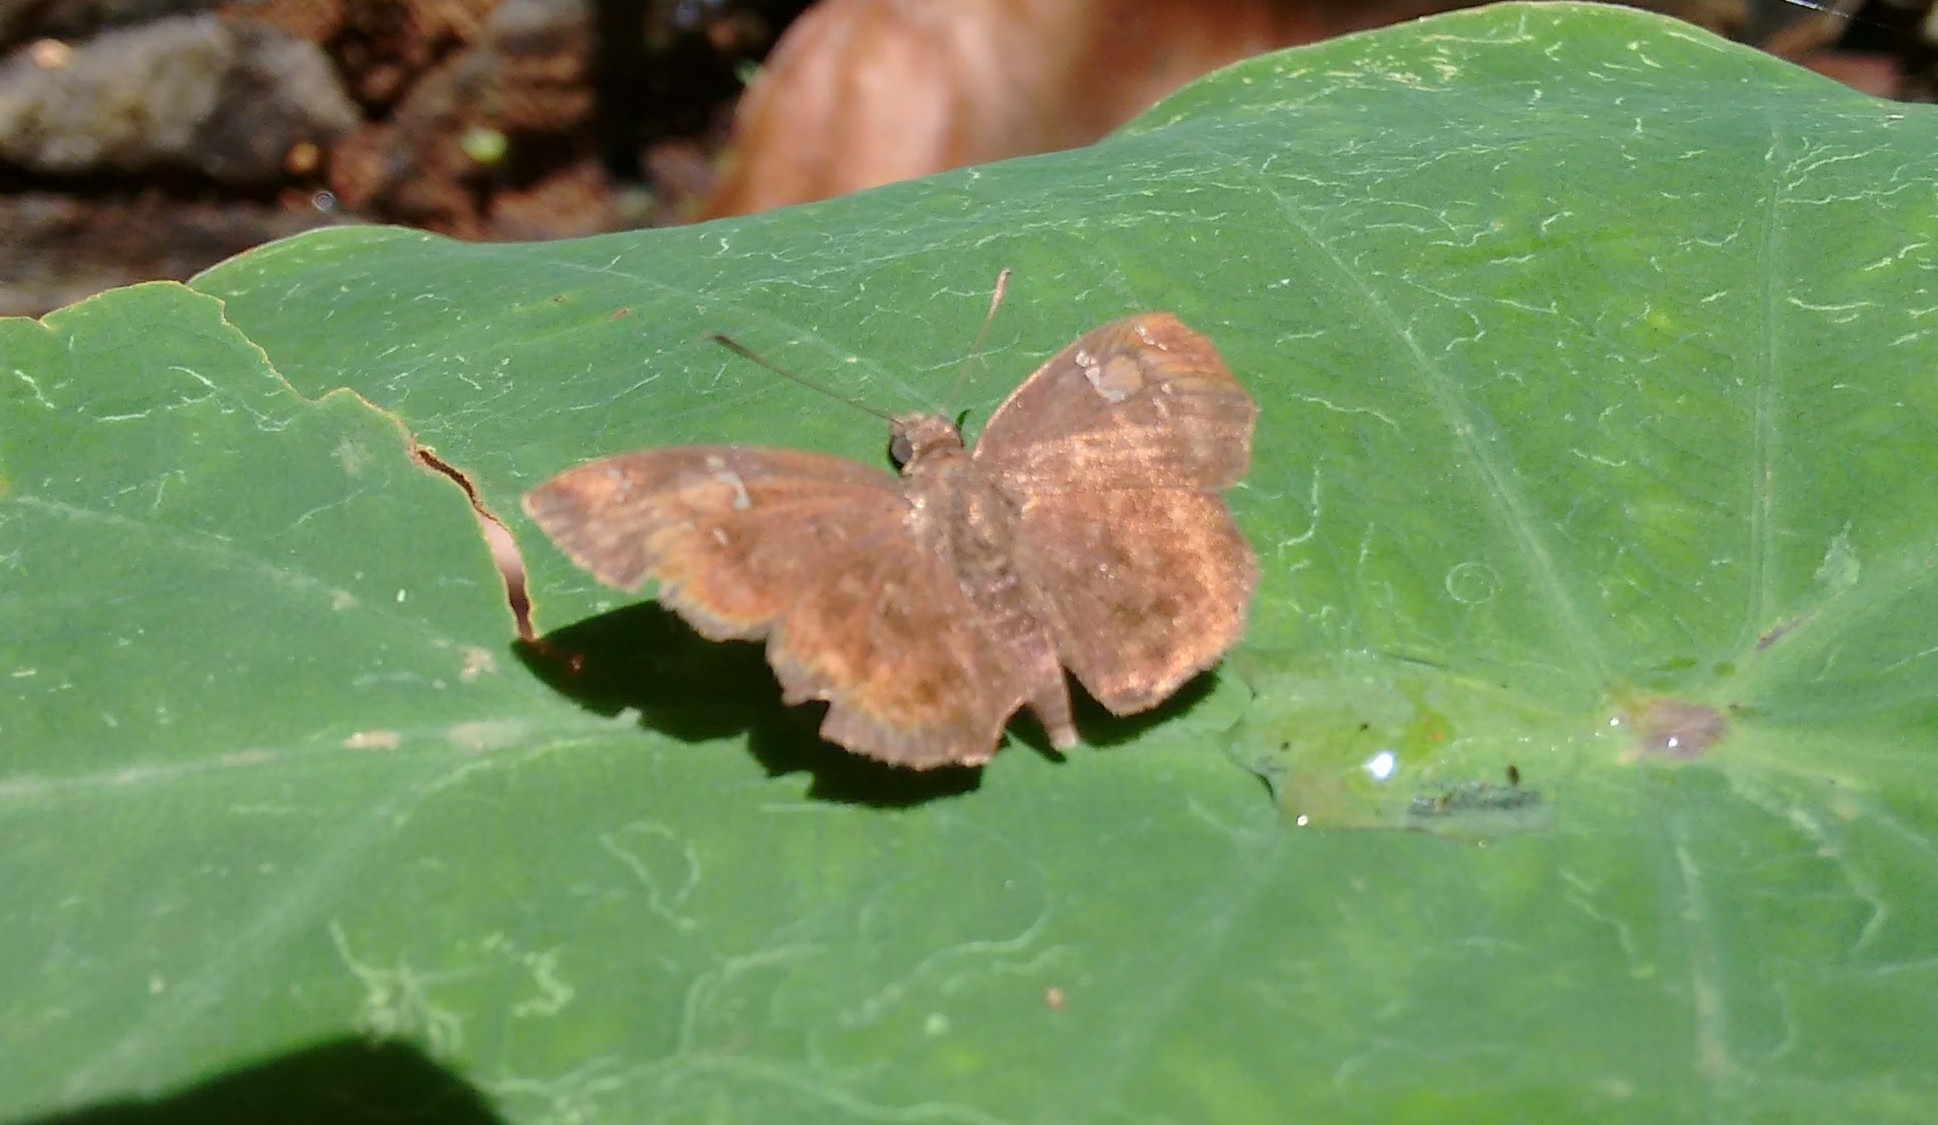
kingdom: Animalia
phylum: Arthropoda
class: Insecta
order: Lepidoptera
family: Hesperiidae
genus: Sarangesa
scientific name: Sarangesa dasahara
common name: Common small flat
